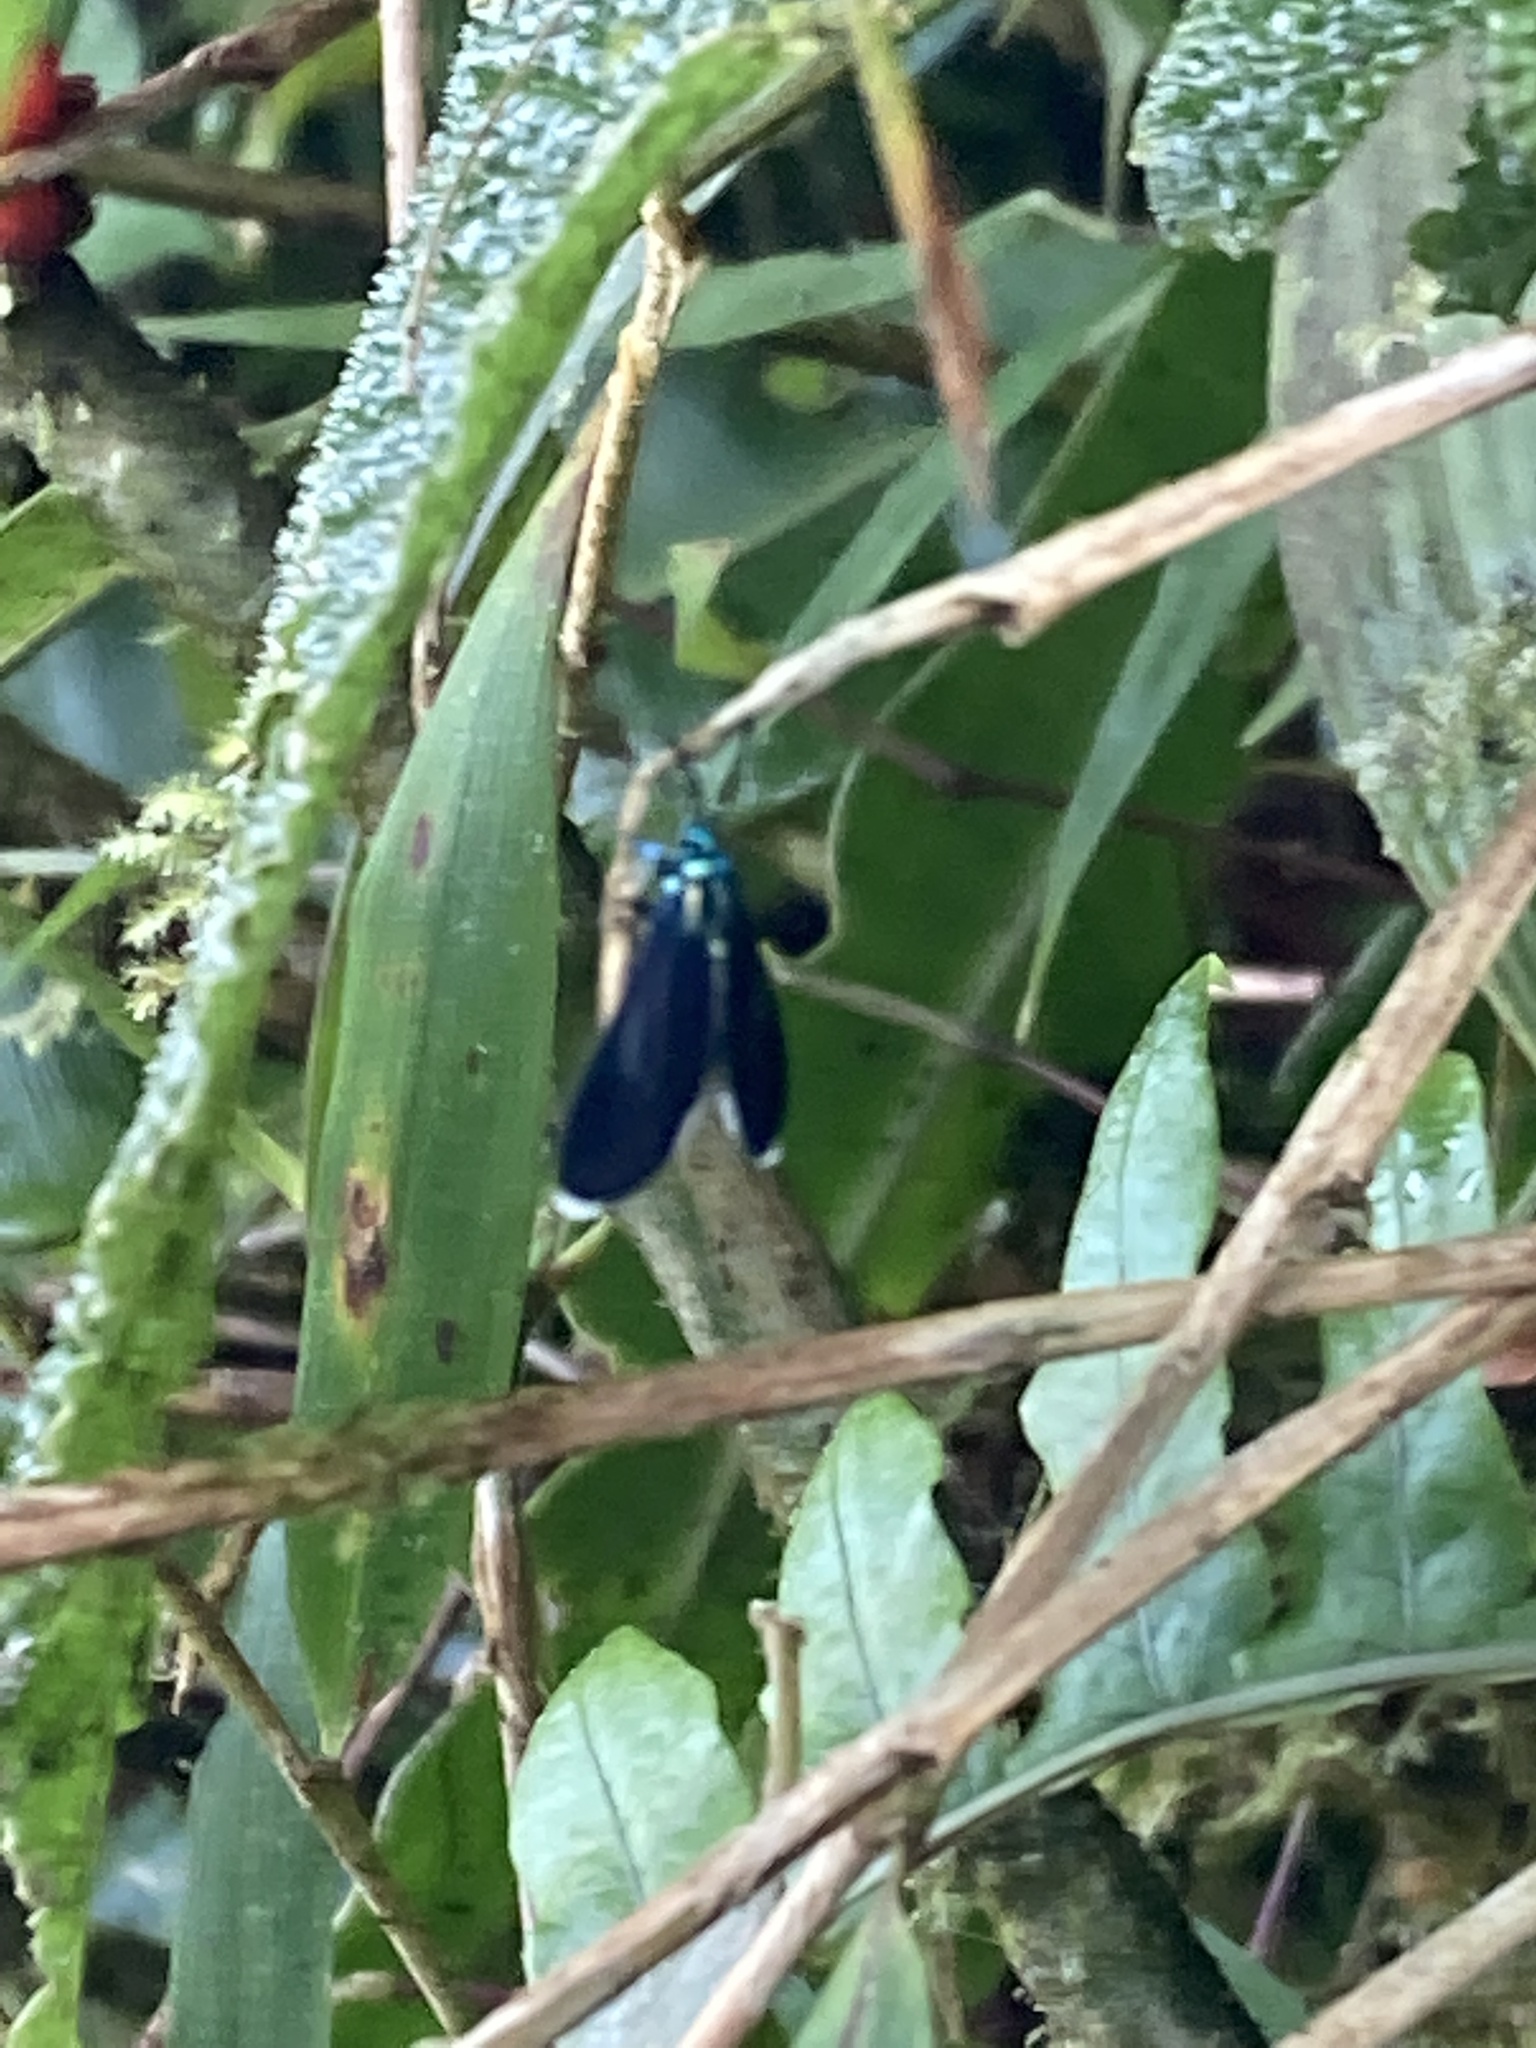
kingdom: Animalia
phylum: Arthropoda
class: Insecta
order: Lepidoptera
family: Erebidae
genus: Uranophora
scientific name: Uranophora leucotela
